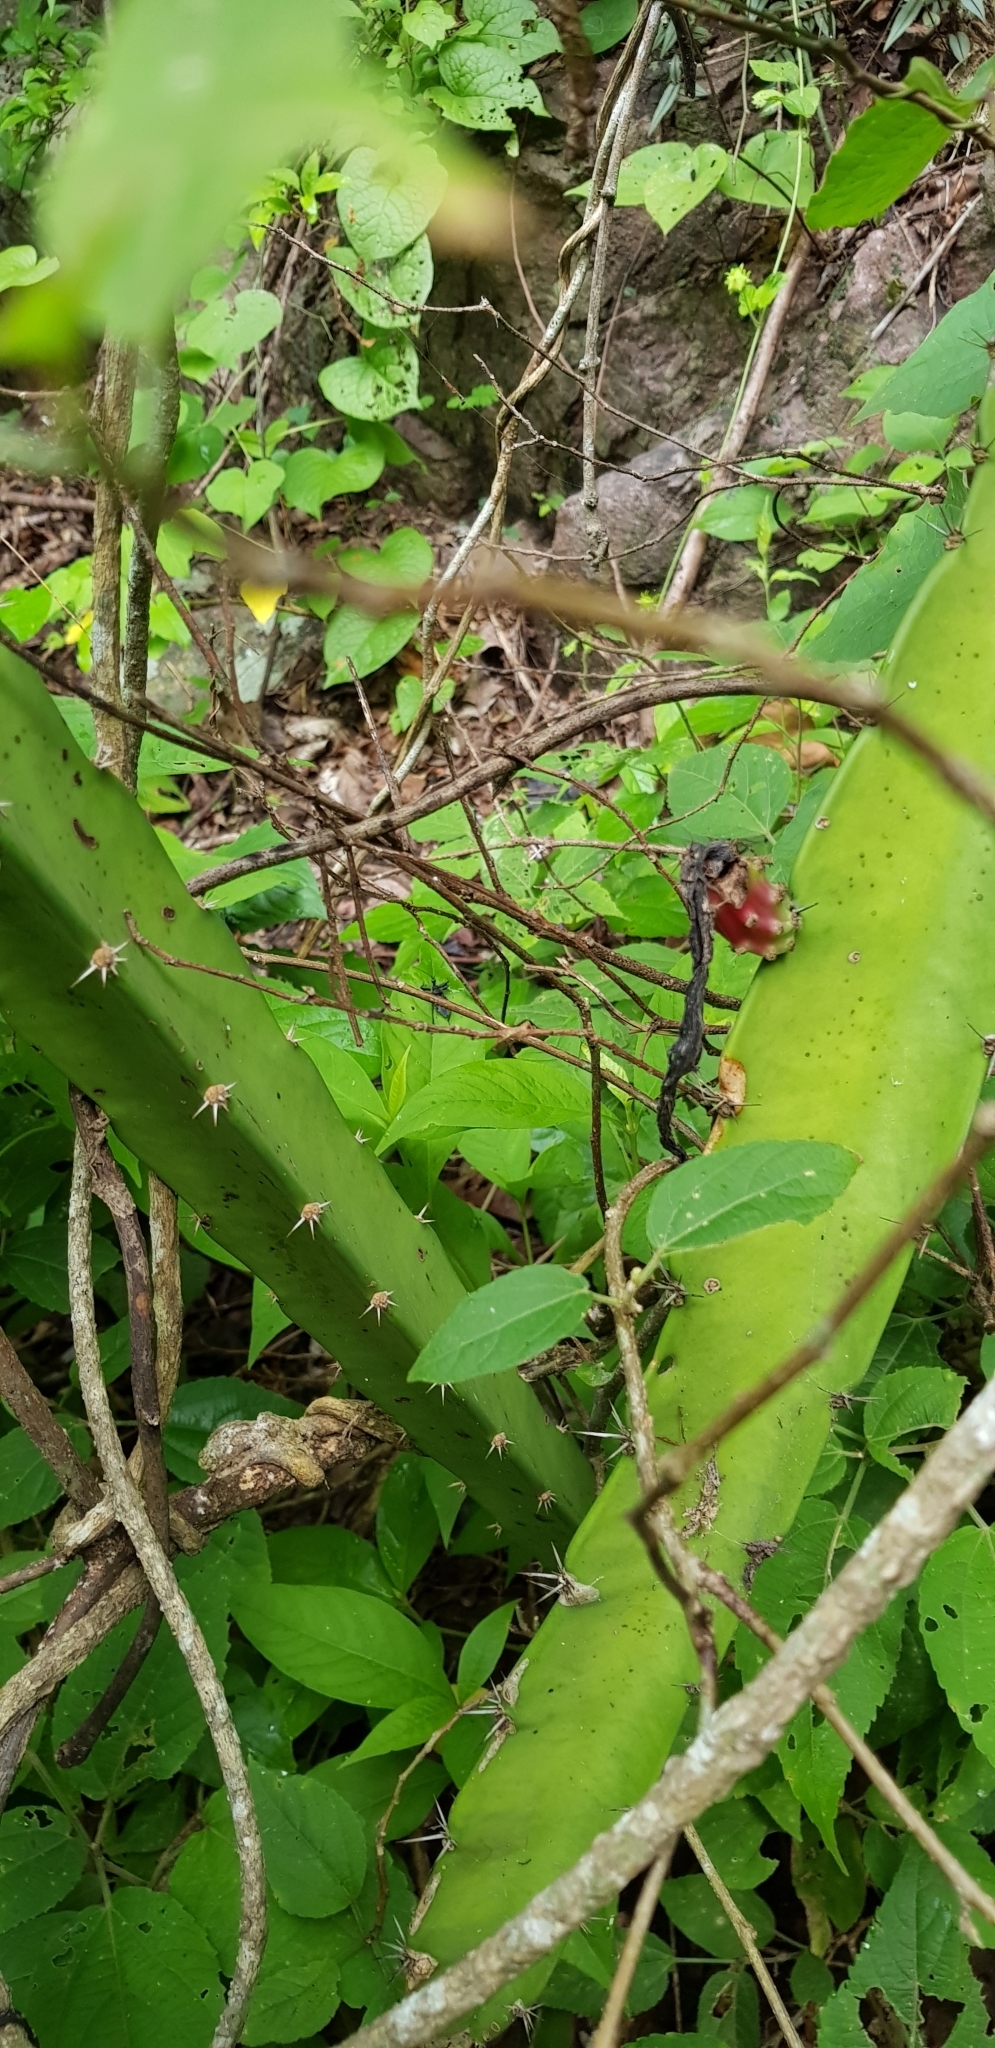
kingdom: Plantae
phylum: Tracheophyta
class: Magnoliopsida
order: Caryophyllales
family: Cactaceae
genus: Acanthocereus
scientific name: Acanthocereus tetragonus
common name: Triangle cactus
